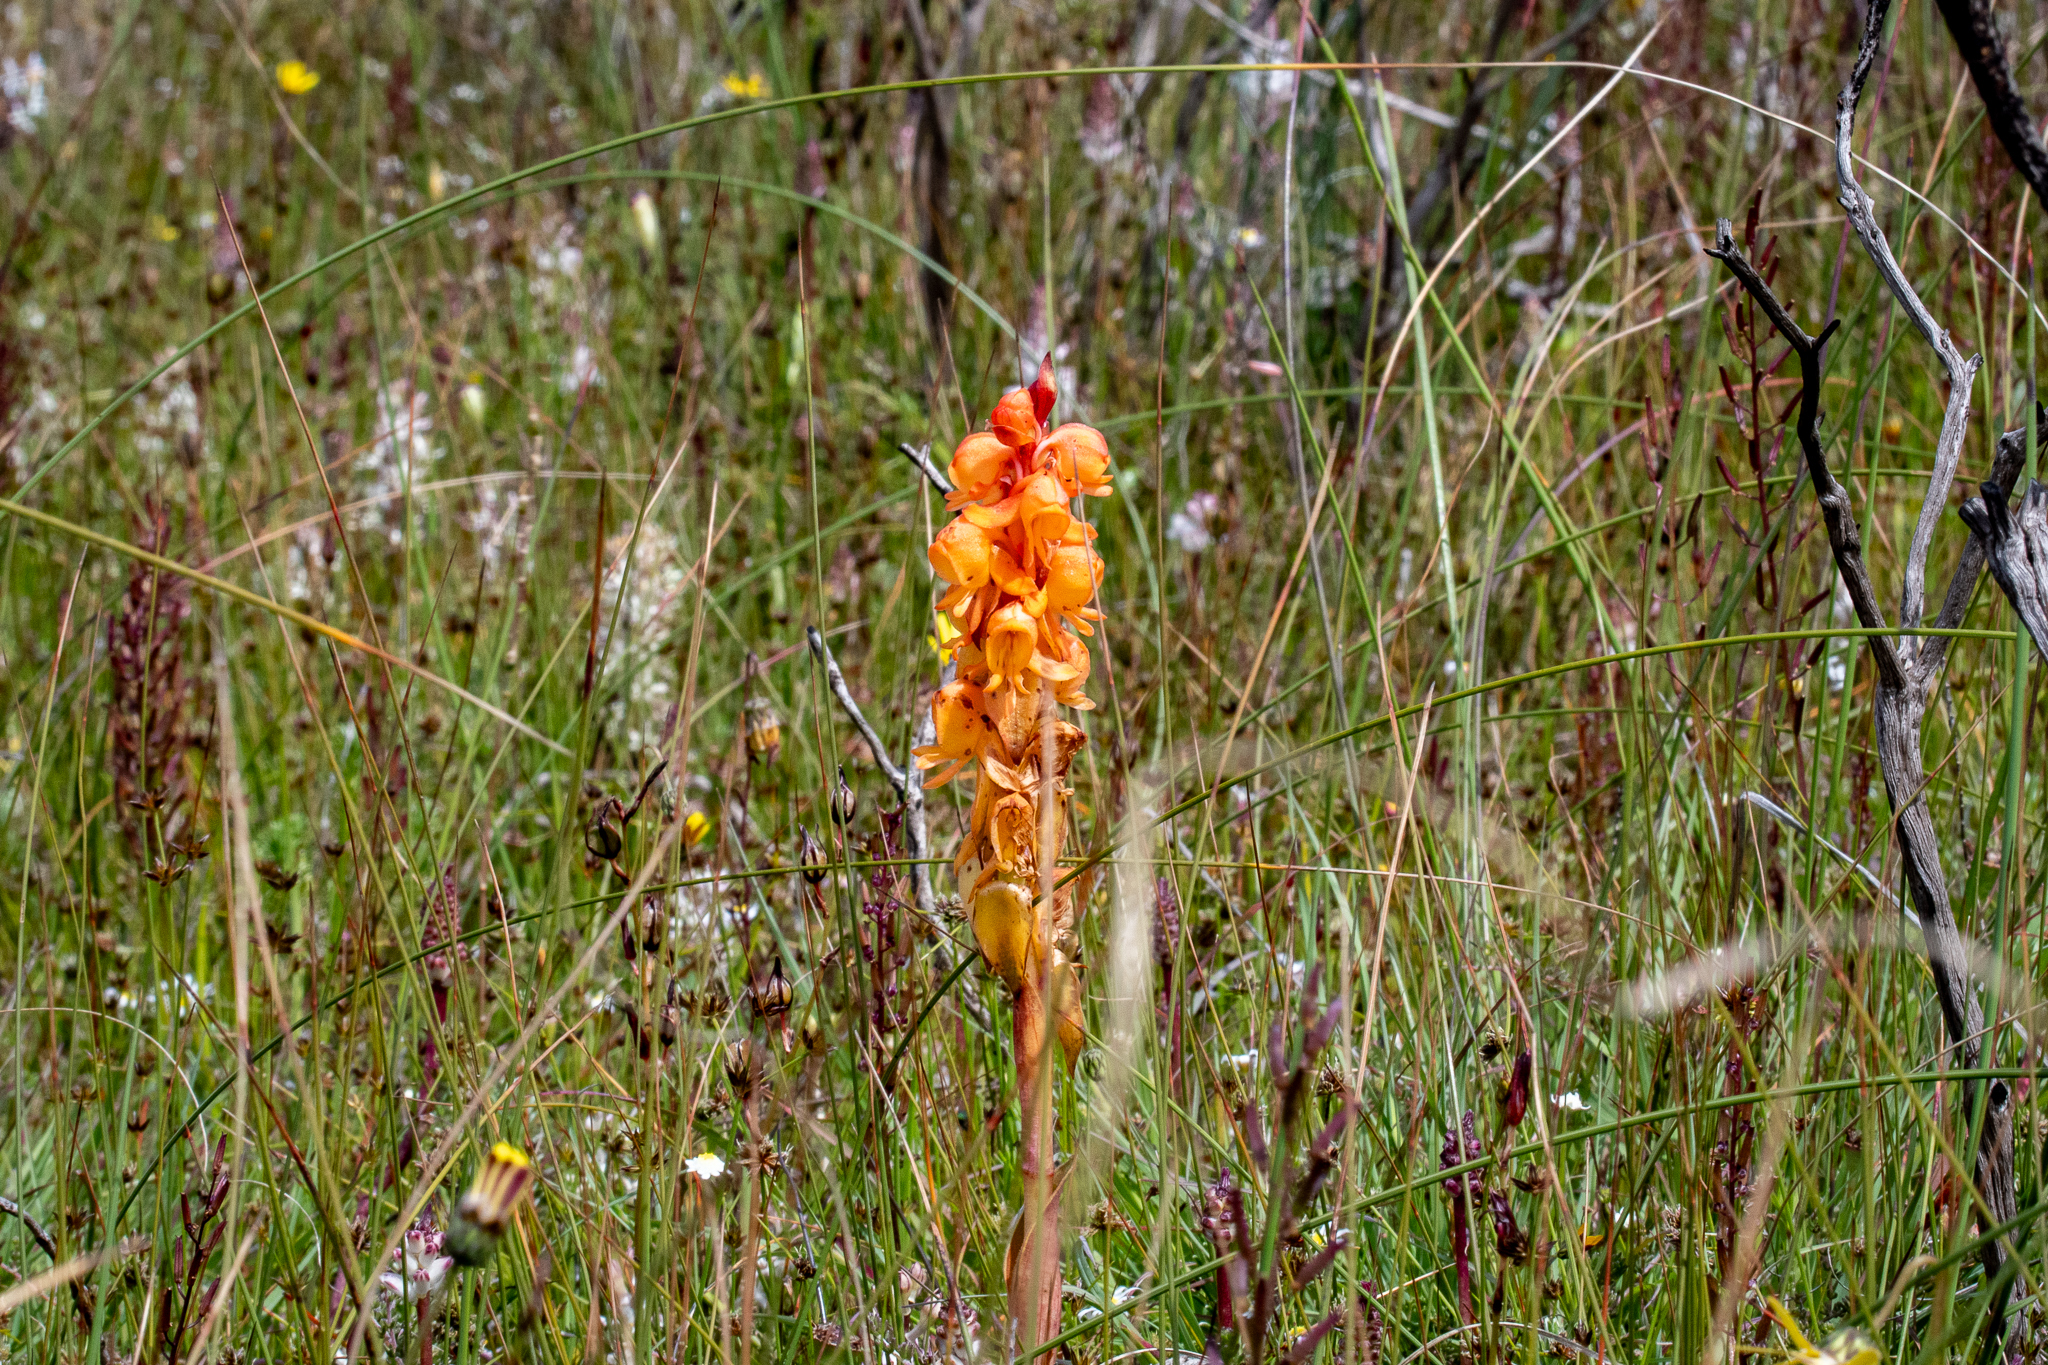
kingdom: Plantae
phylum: Tracheophyta
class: Liliopsida
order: Asparagales
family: Orchidaceae
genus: Satyrium
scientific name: Satyrium coriifolium
